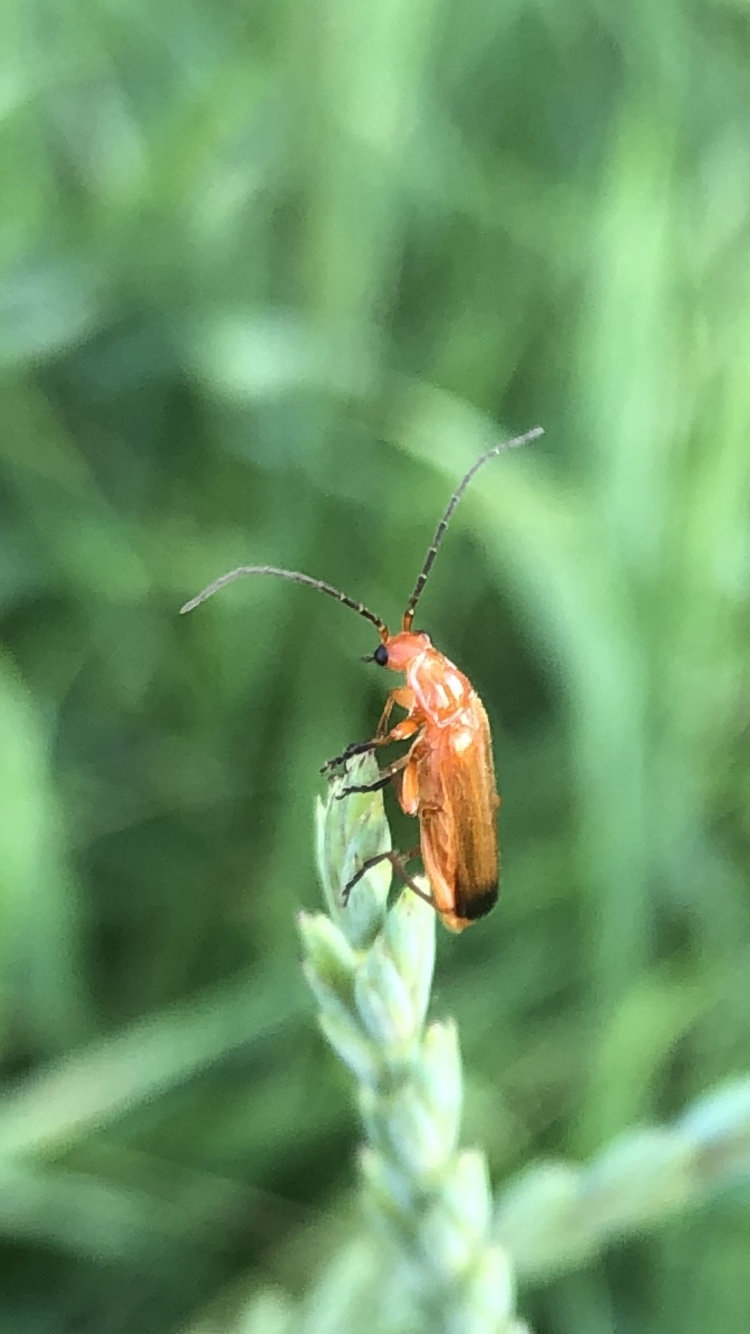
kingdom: Animalia
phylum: Arthropoda
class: Insecta
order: Coleoptera
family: Cantharidae
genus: Rhagonycha
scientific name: Rhagonycha fulva
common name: Common red soldier beetle
